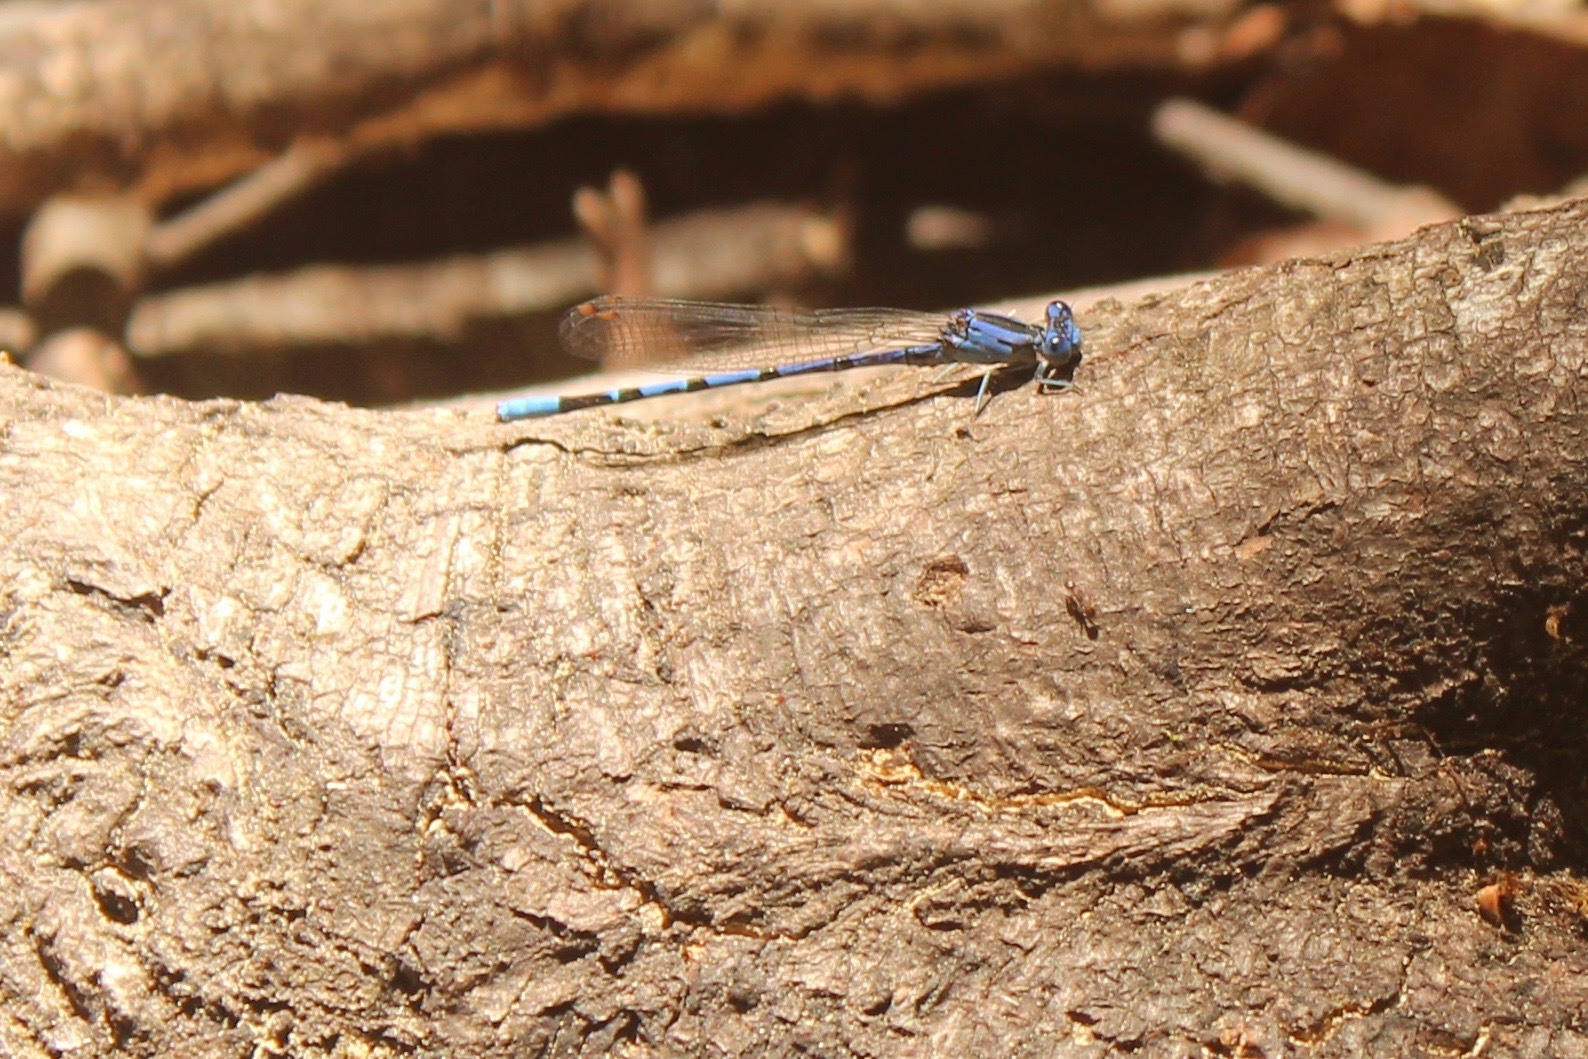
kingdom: Animalia
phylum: Arthropoda
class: Insecta
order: Odonata
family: Coenagrionidae
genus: Argia
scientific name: Argia vivida
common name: Vivid dancer
